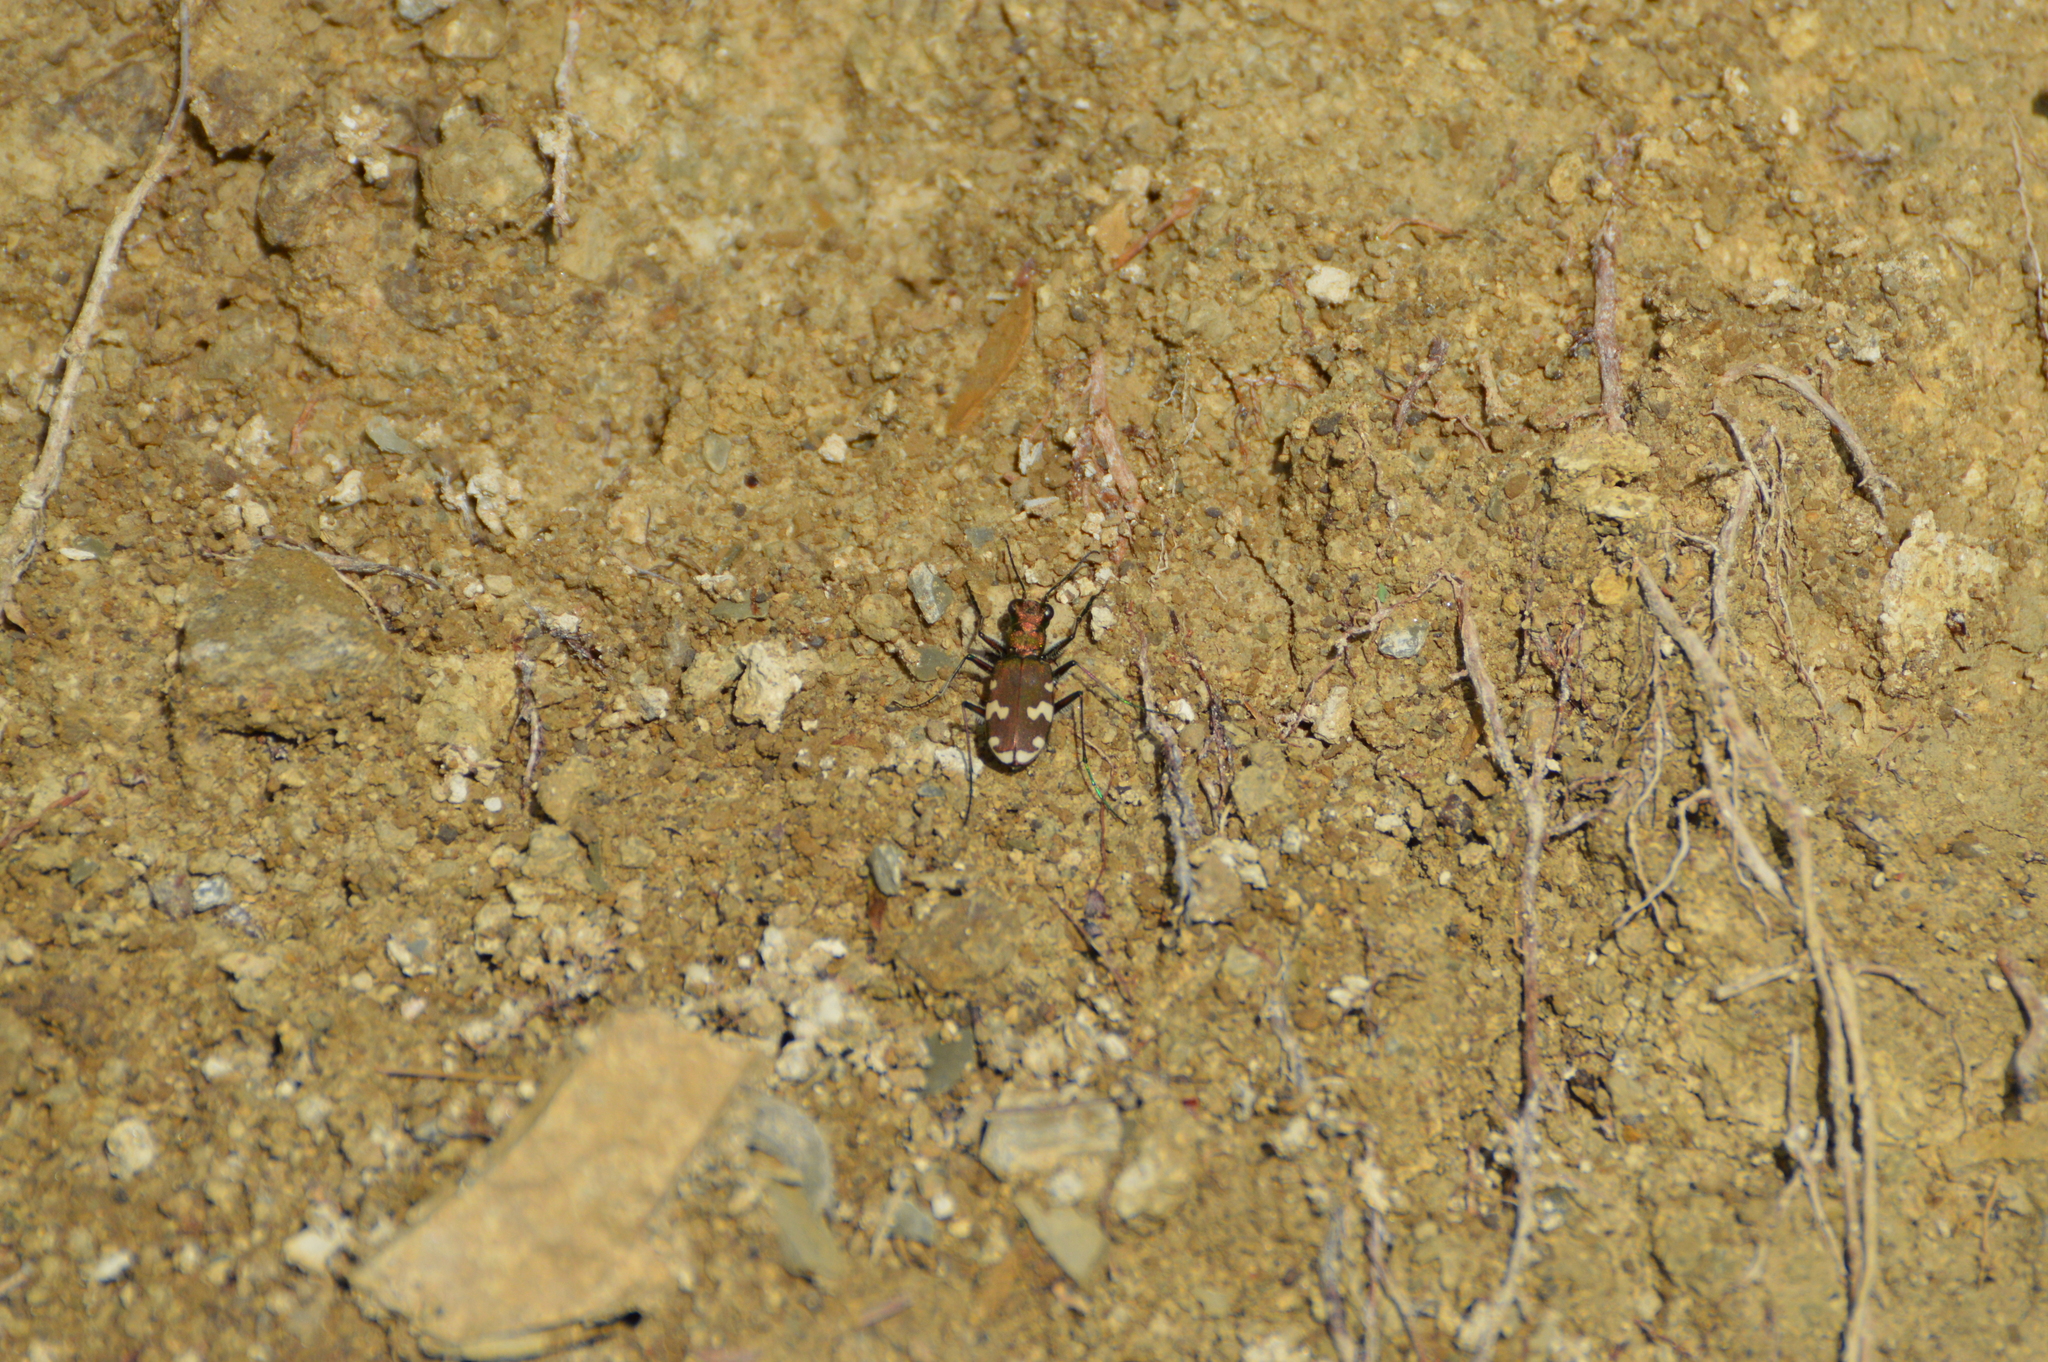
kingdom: Animalia
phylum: Arthropoda
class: Insecta
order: Coleoptera
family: Carabidae
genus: Cicindela
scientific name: Cicindela sylvicola
